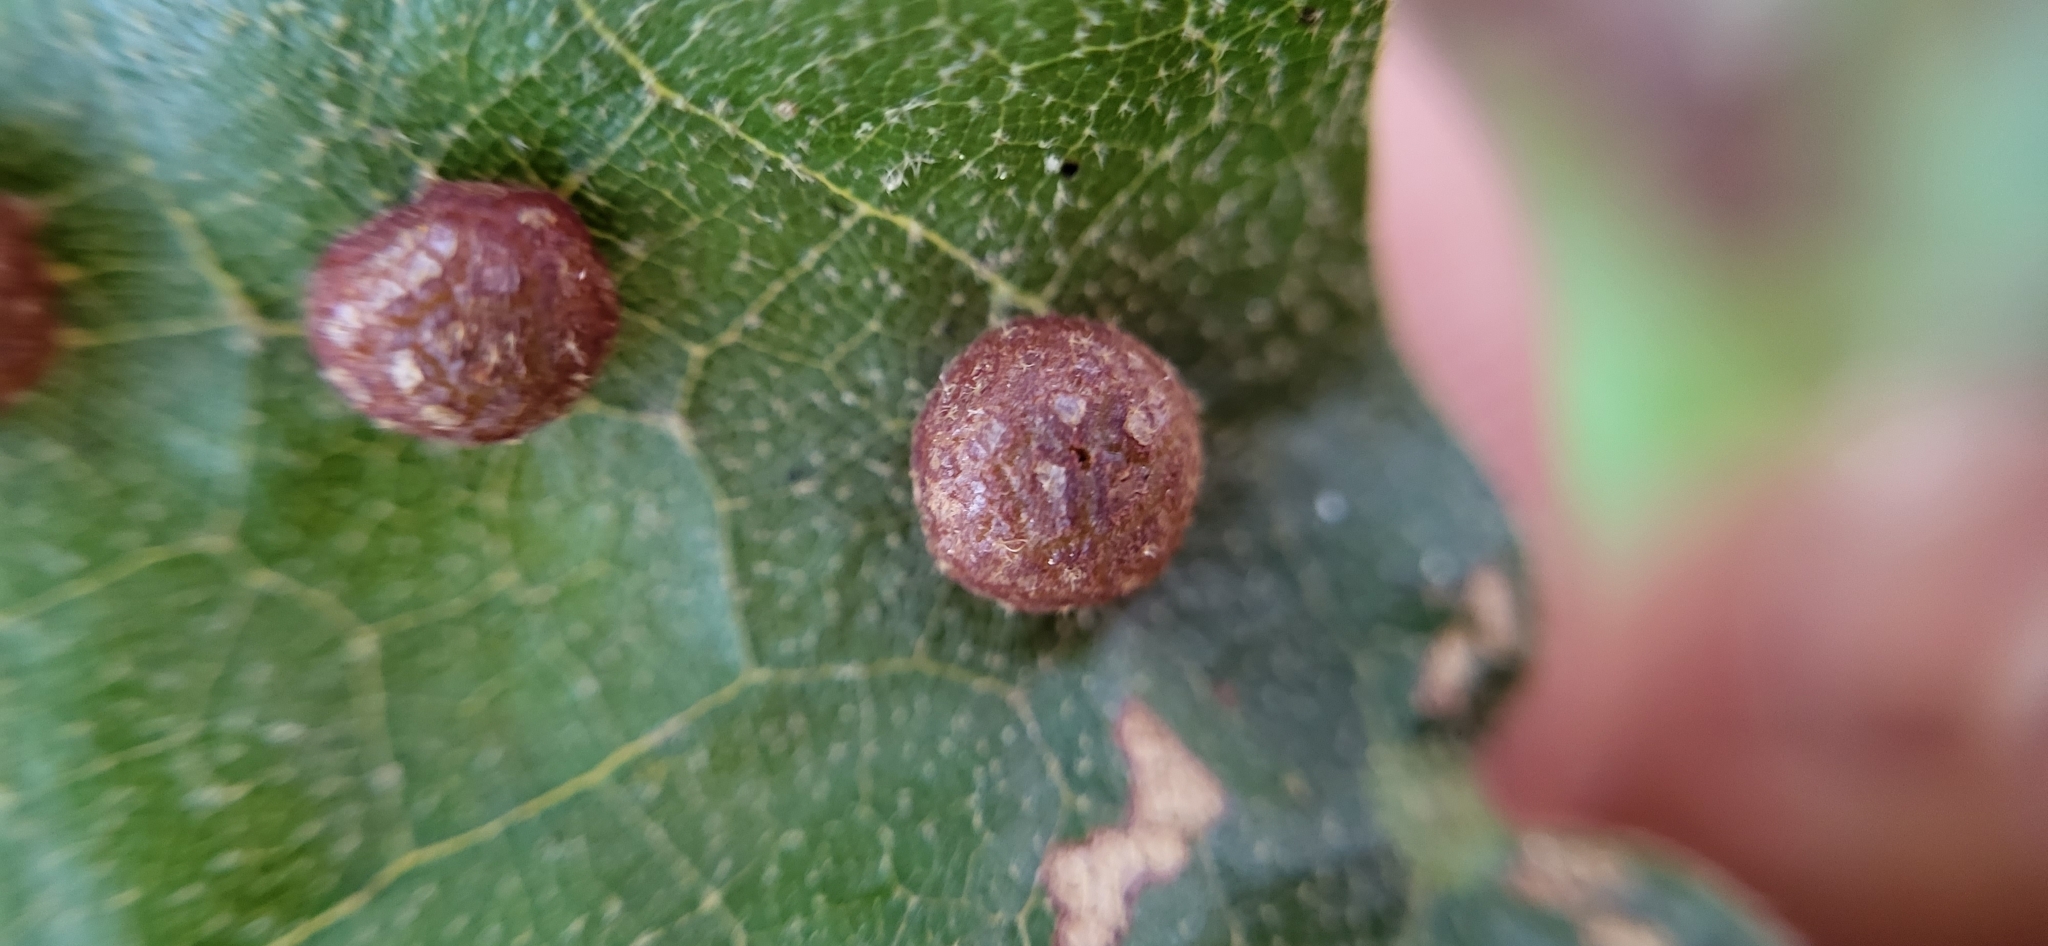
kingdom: Animalia
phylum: Arthropoda
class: Insecta
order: Diptera
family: Cecidomyiidae
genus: Polystepha
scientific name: Polystepha pilulae
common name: Oak leaf gall midge
